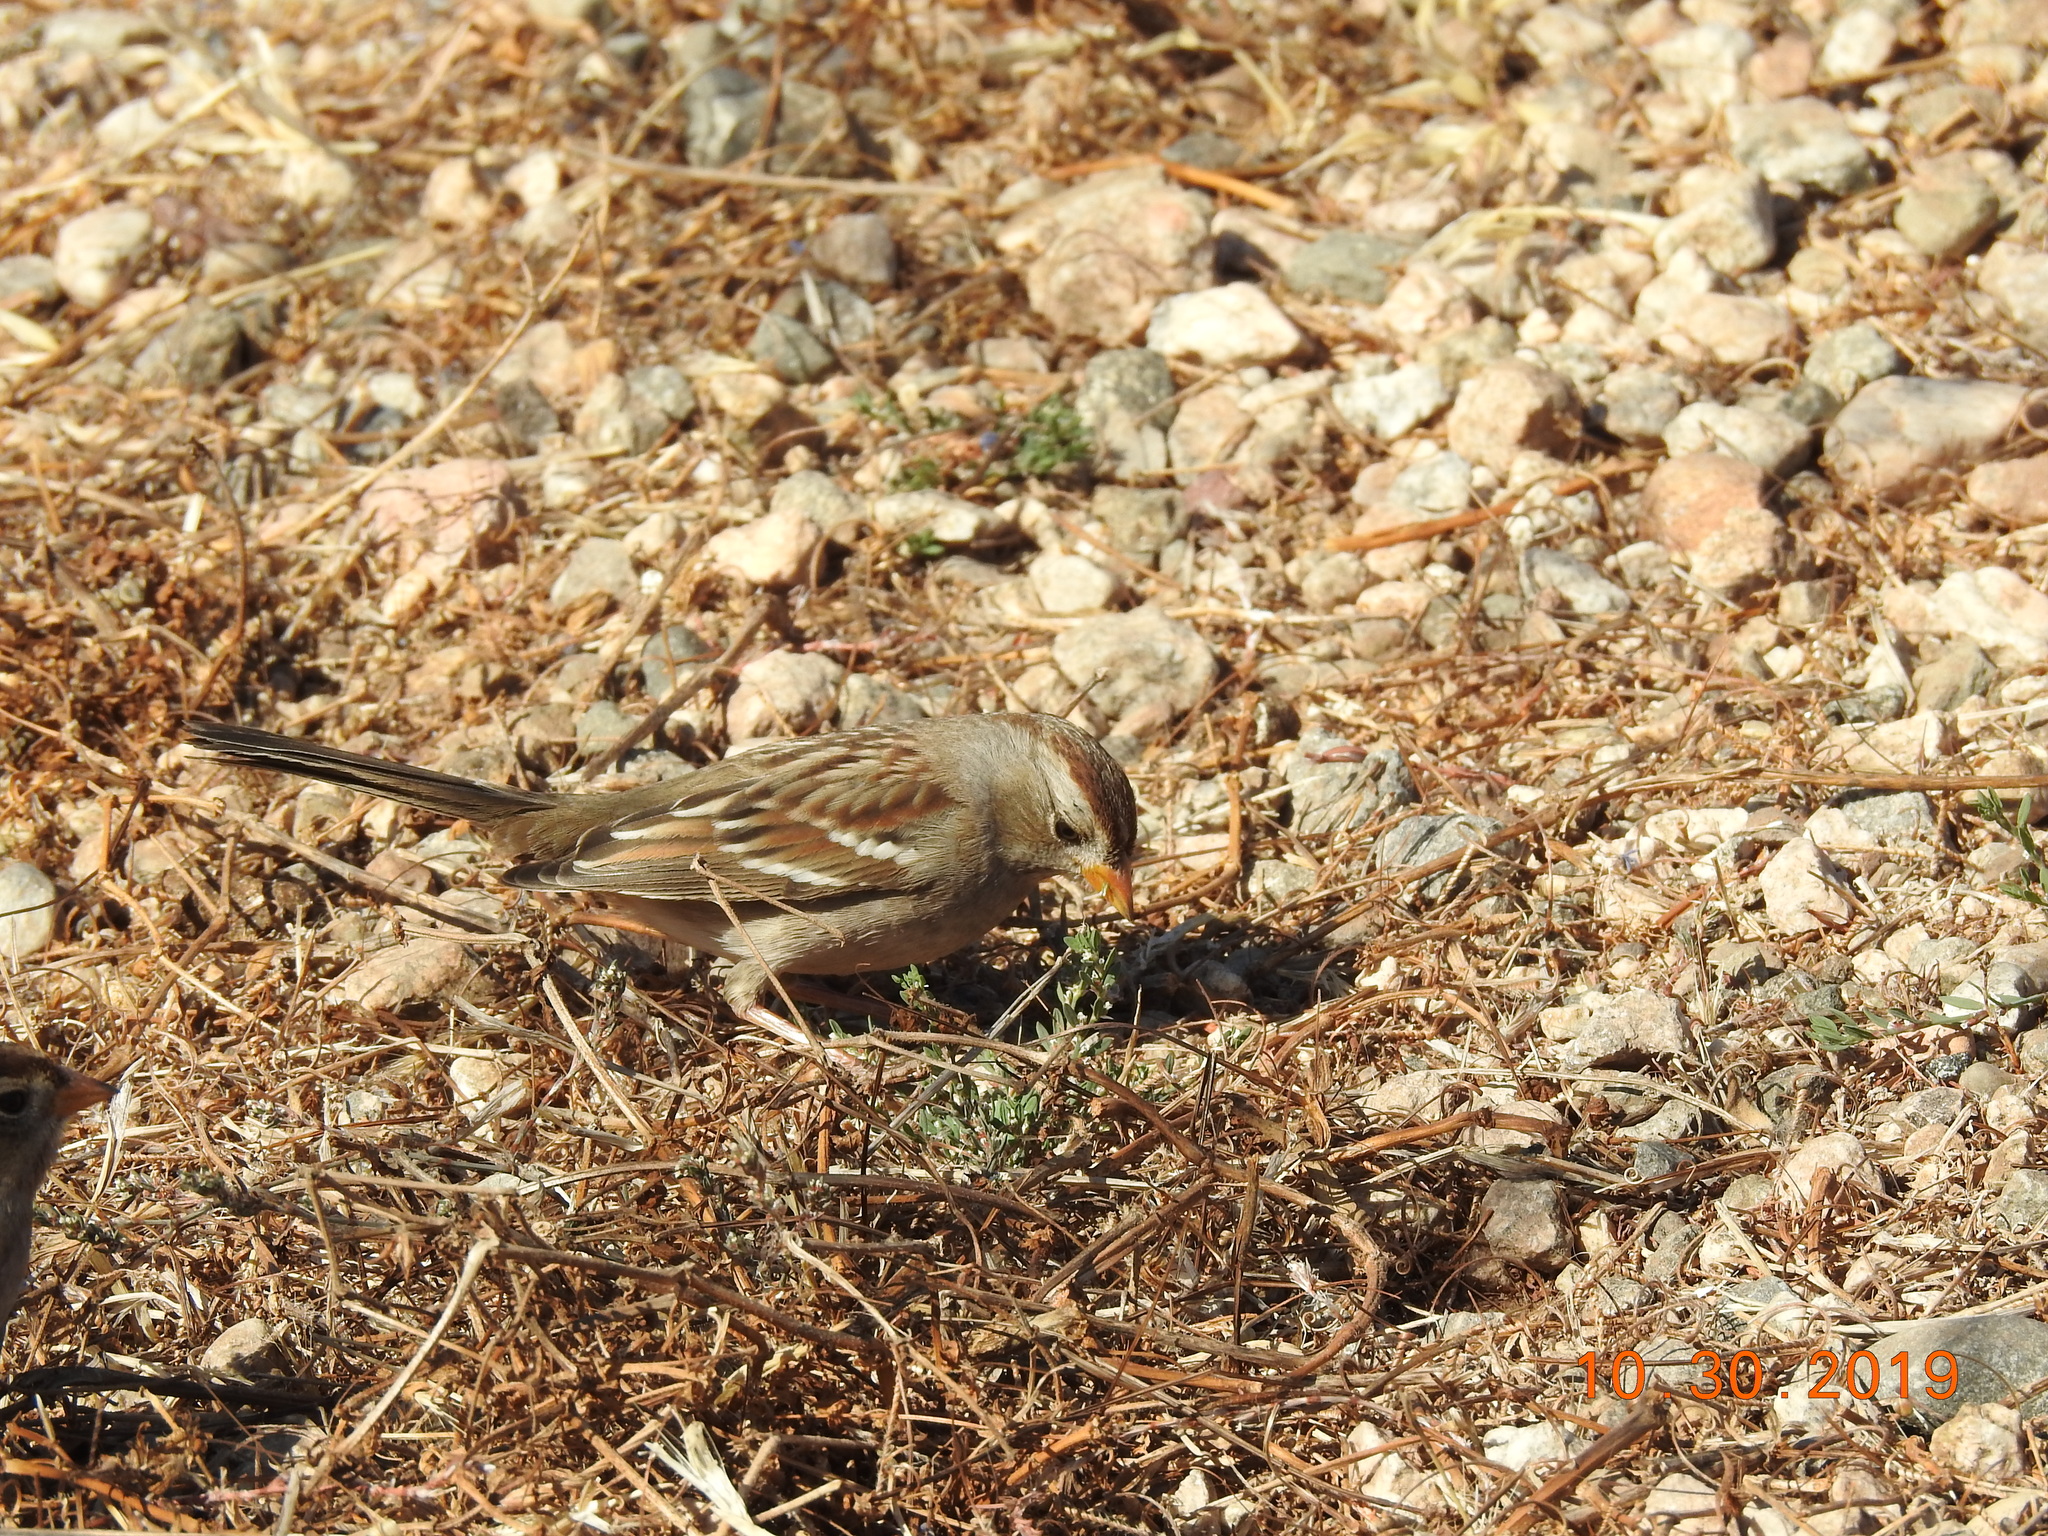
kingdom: Animalia
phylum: Chordata
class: Aves
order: Passeriformes
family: Passerellidae
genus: Zonotrichia
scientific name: Zonotrichia leucophrys
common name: White-crowned sparrow
